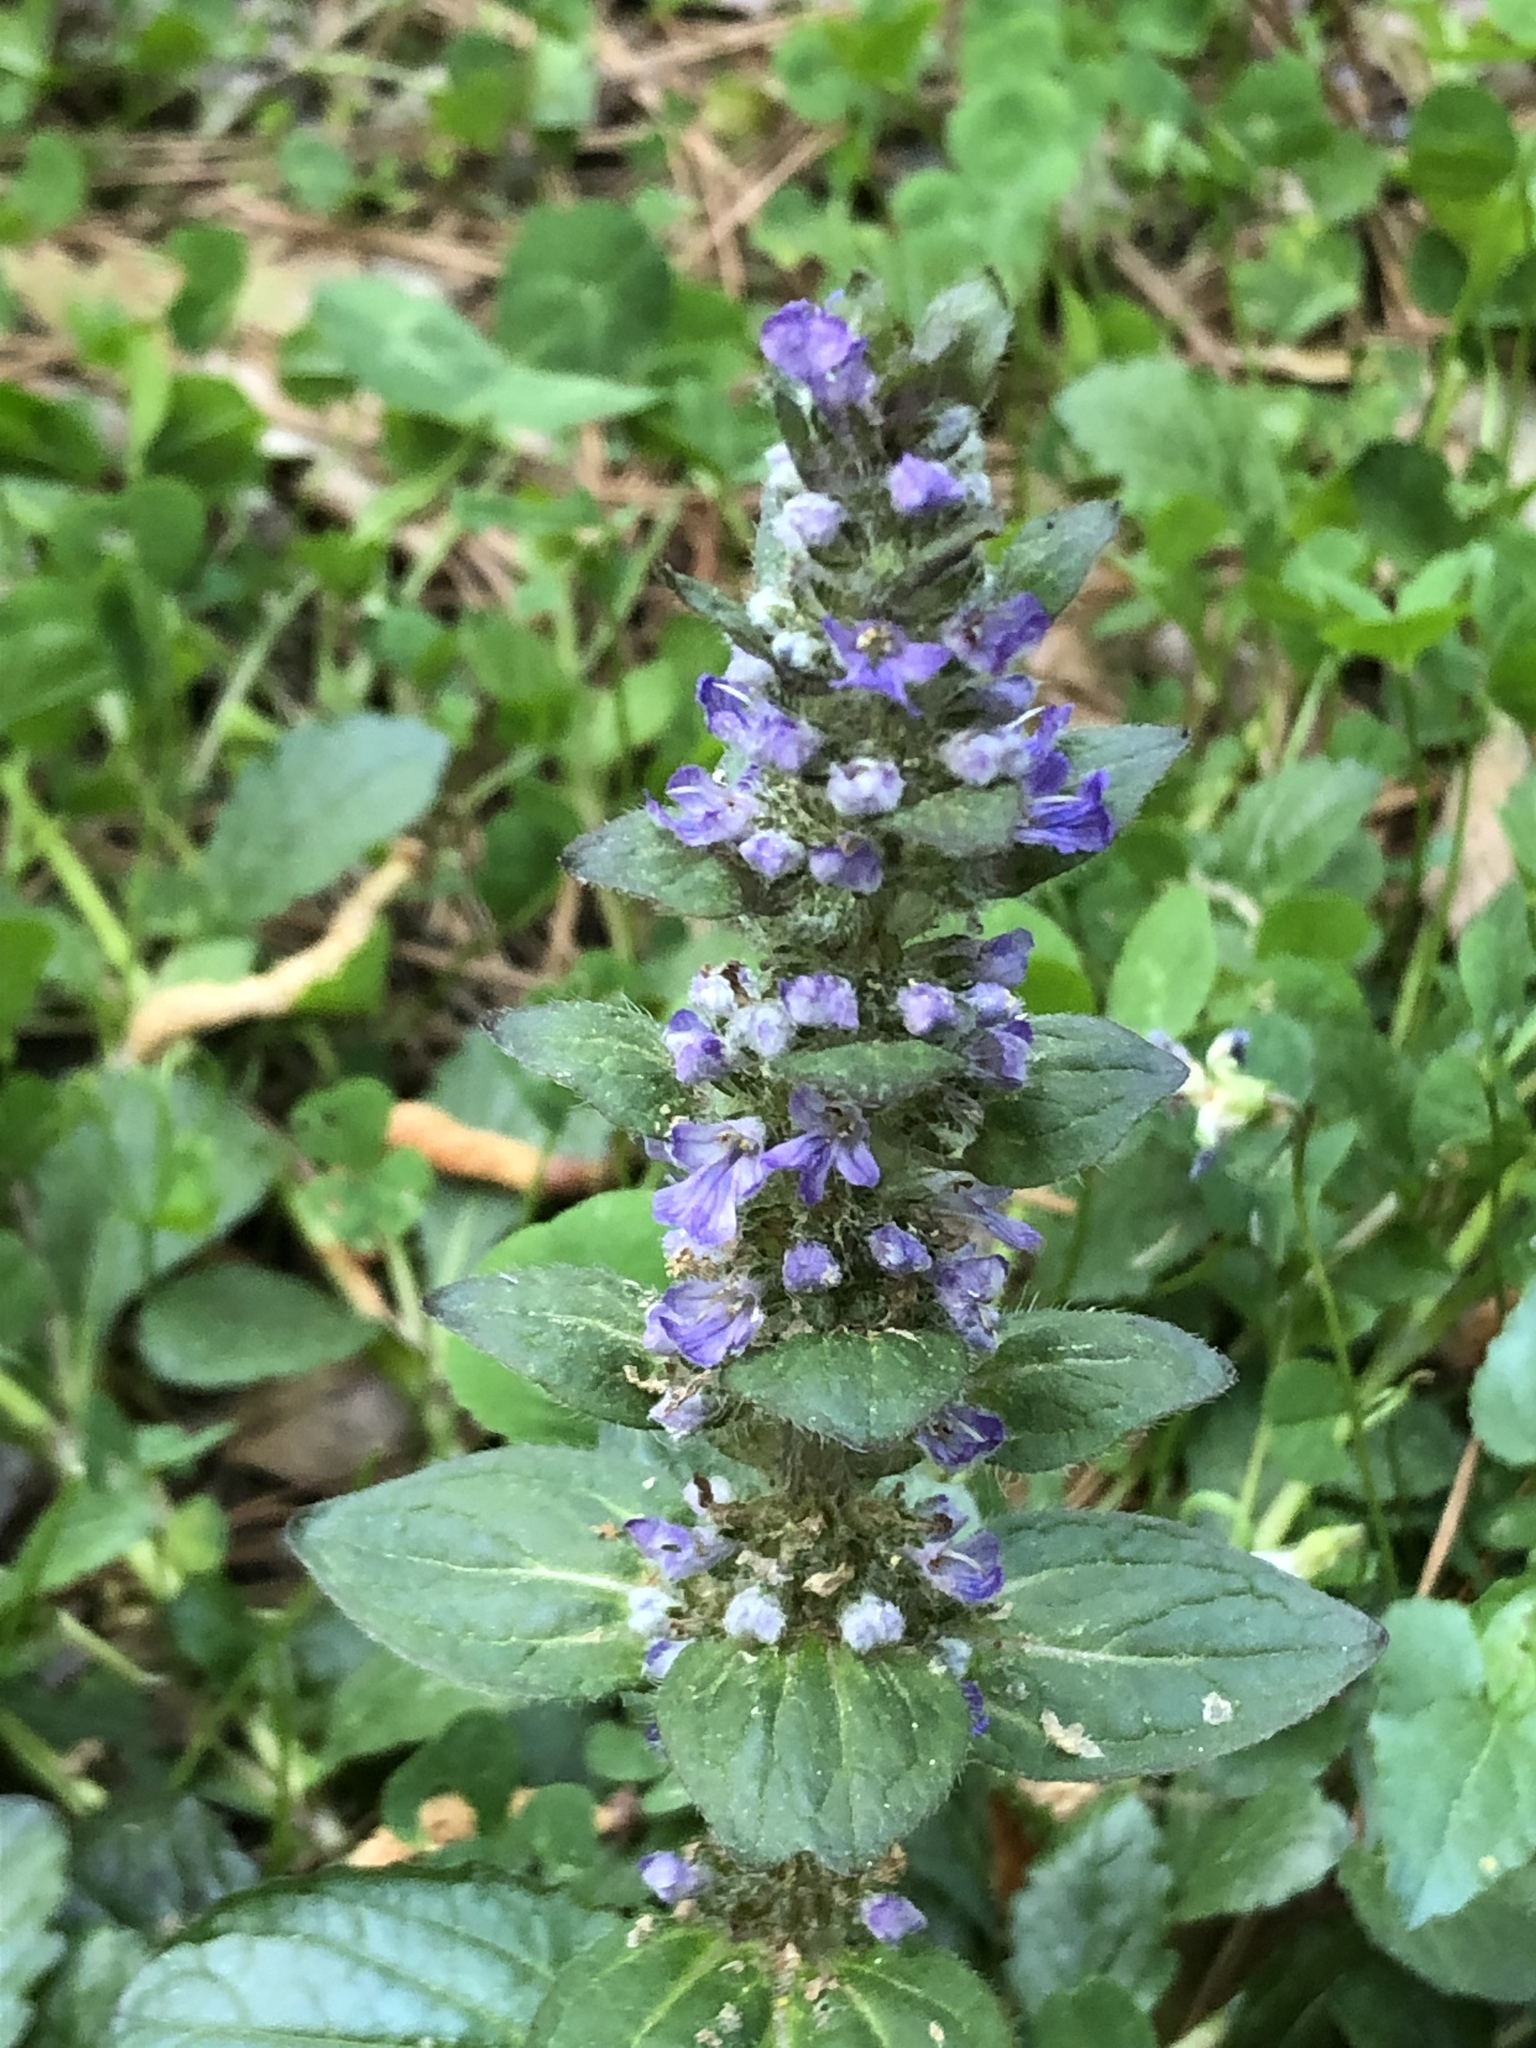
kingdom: Plantae
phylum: Tracheophyta
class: Magnoliopsida
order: Lamiales
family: Lamiaceae
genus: Ajuga
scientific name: Ajuga reptans
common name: Bugle
